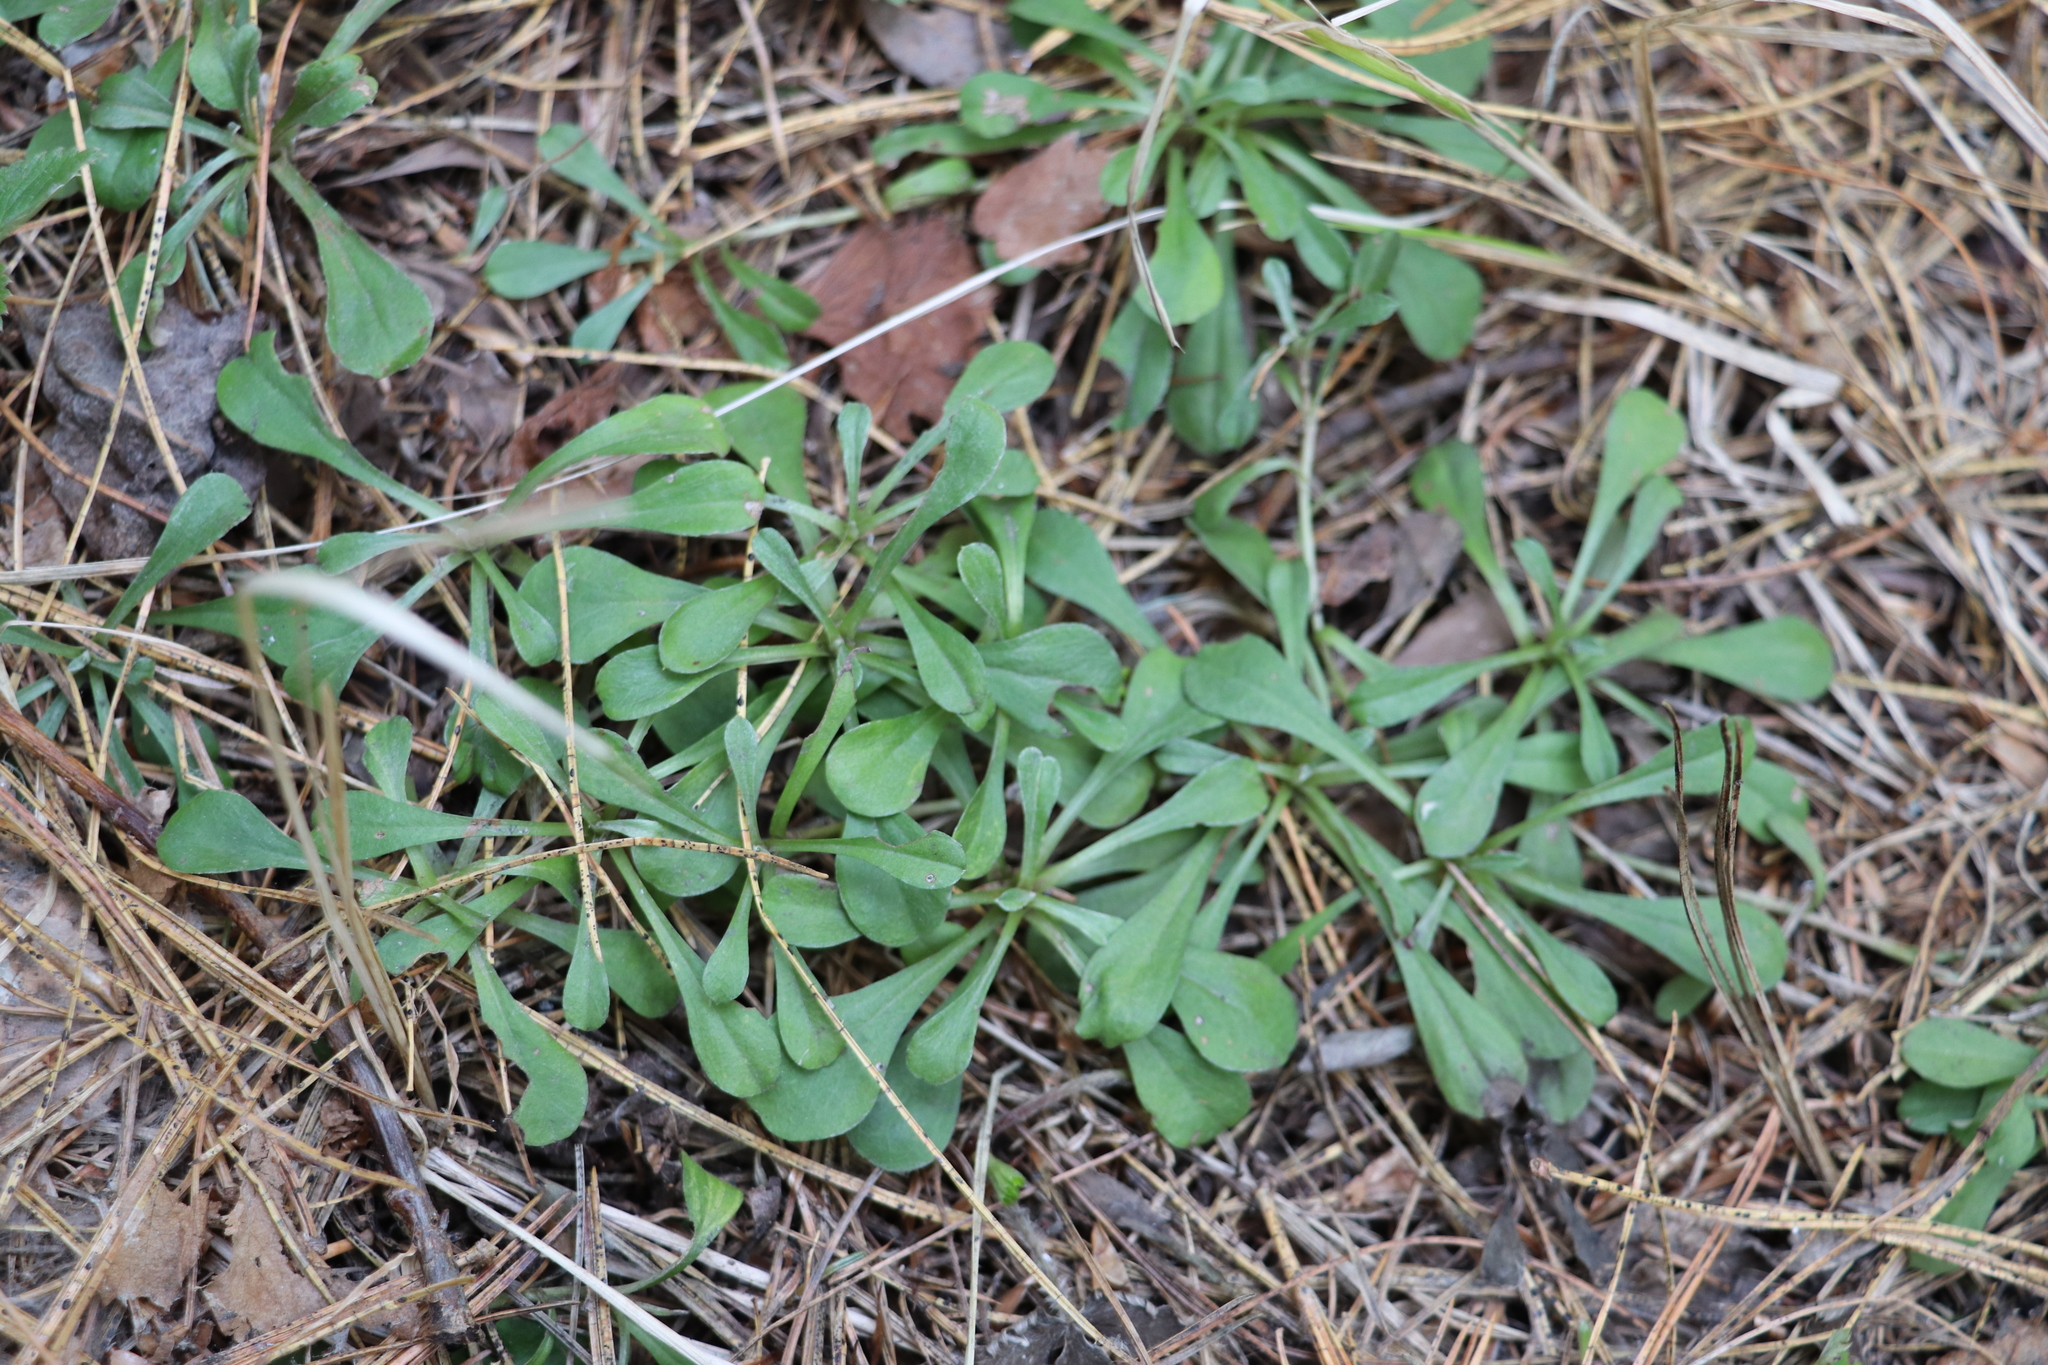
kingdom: Plantae
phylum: Tracheophyta
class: Magnoliopsida
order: Asterales
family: Asteraceae
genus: Antennaria
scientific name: Antennaria dioica
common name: Mountain everlasting
